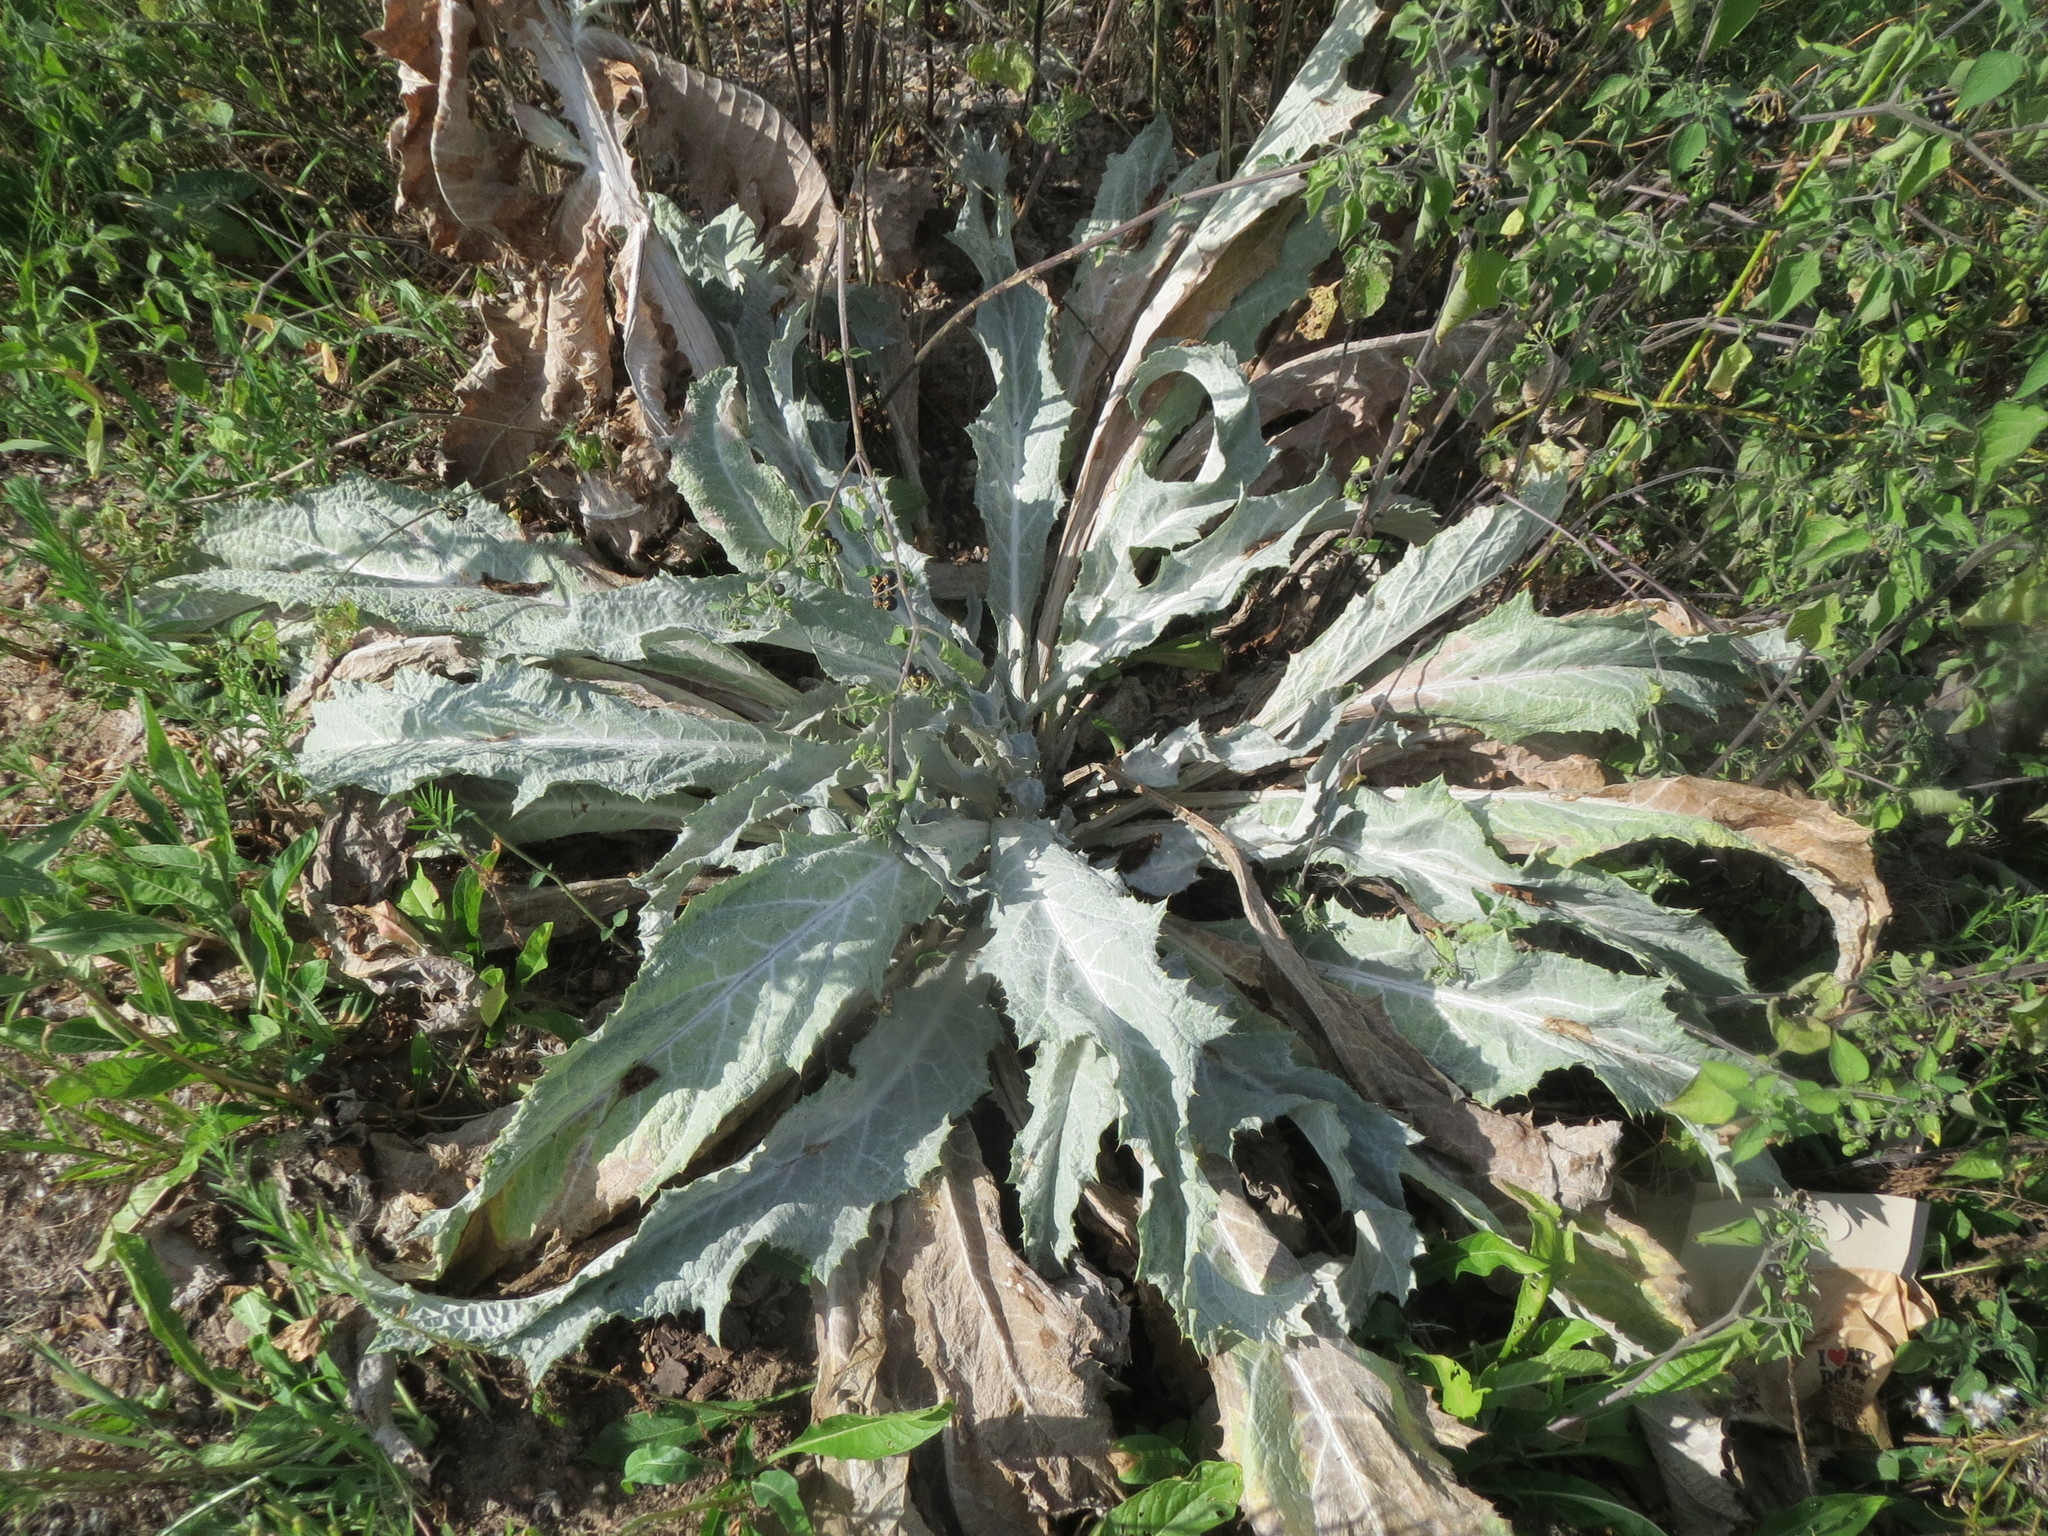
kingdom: Plantae
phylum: Tracheophyta
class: Magnoliopsida
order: Asterales
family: Asteraceae
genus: Onopordum
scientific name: Onopordum acanthium
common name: Scotch thistle
